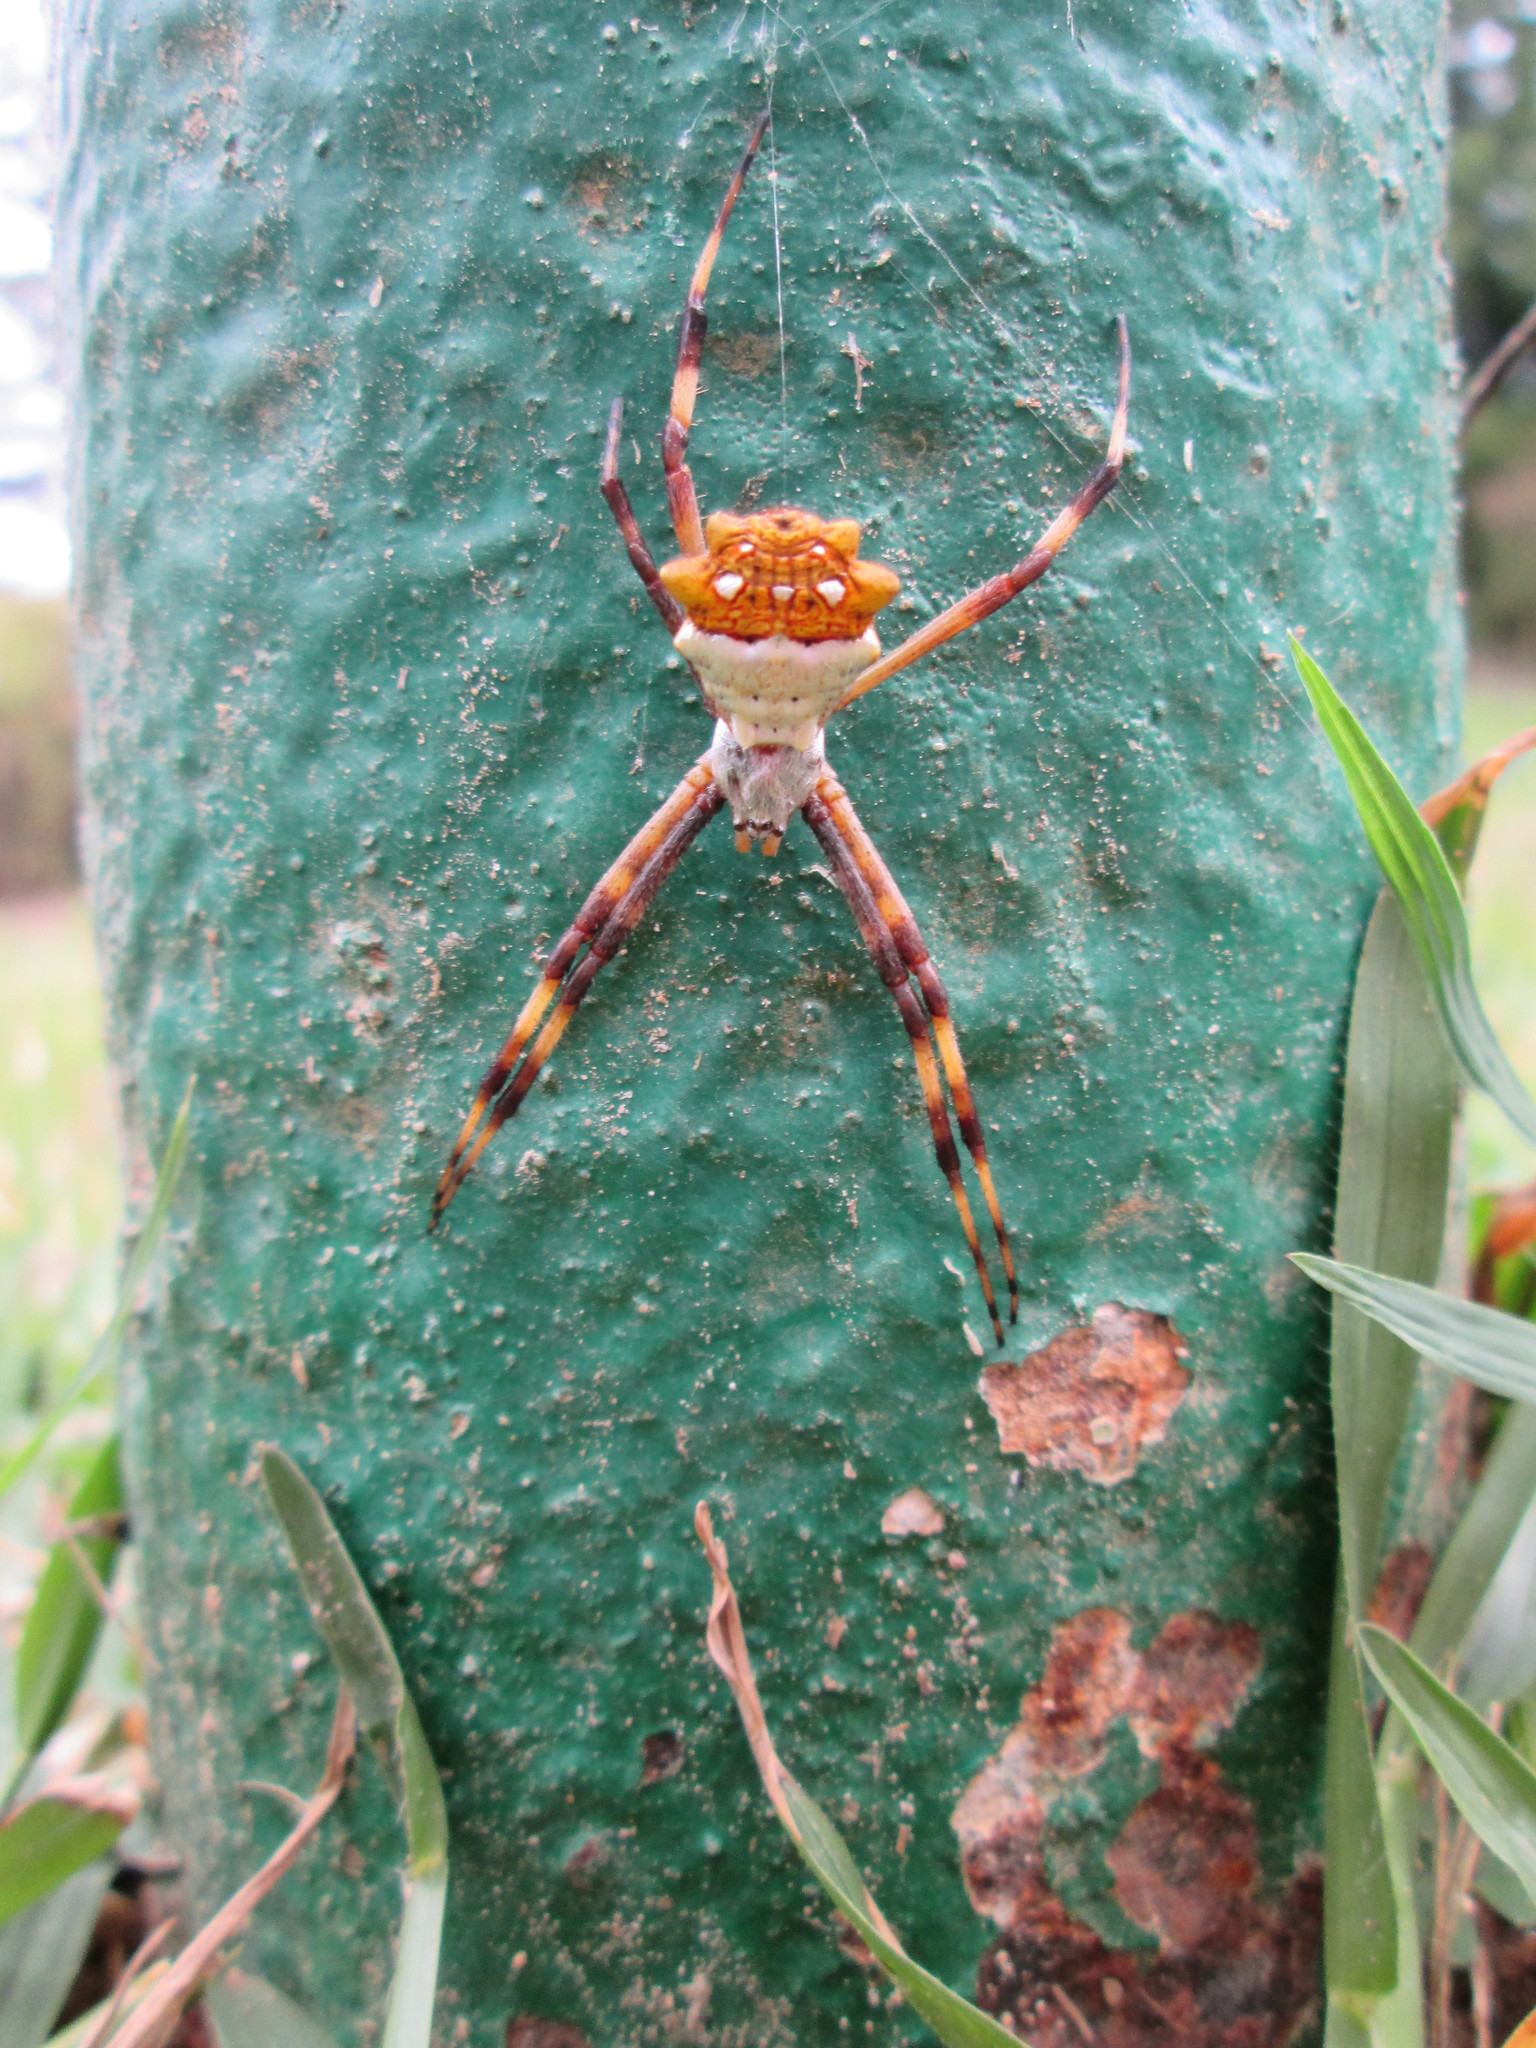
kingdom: Animalia
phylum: Arthropoda
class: Arachnida
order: Araneae
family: Araneidae
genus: Argiope
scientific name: Argiope argentata
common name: Orb weavers
